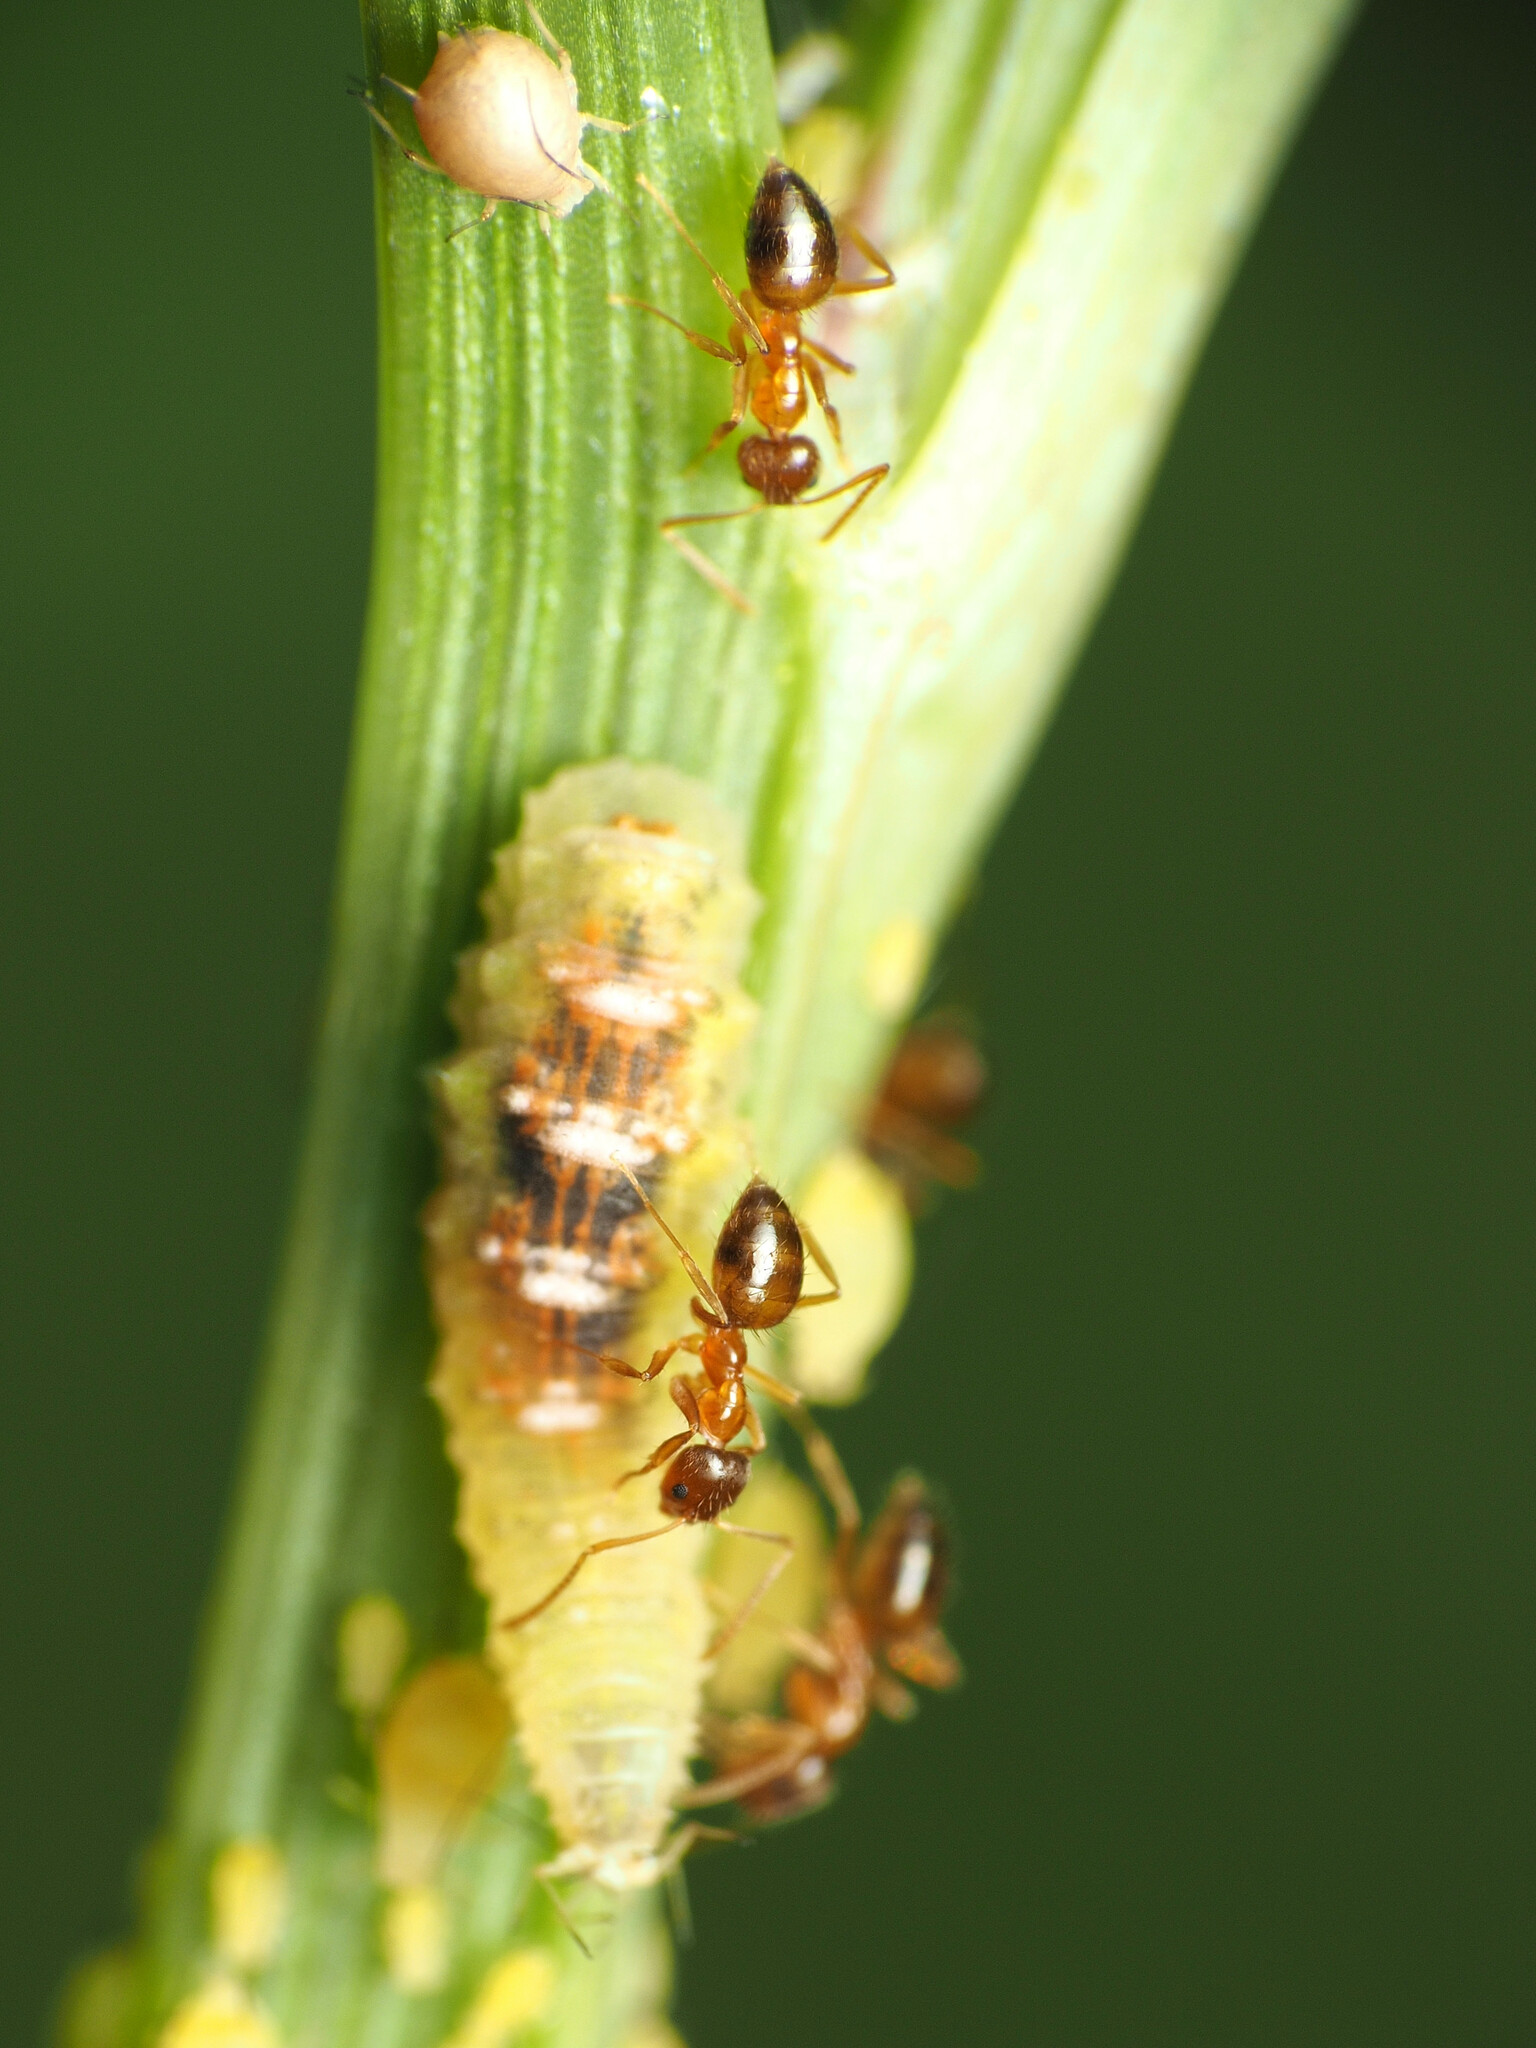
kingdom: Animalia
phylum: Arthropoda
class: Insecta
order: Hymenoptera
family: Formicidae
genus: Paratrechina
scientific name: Paratrechina flavipes
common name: Eastern asian formicine ant
